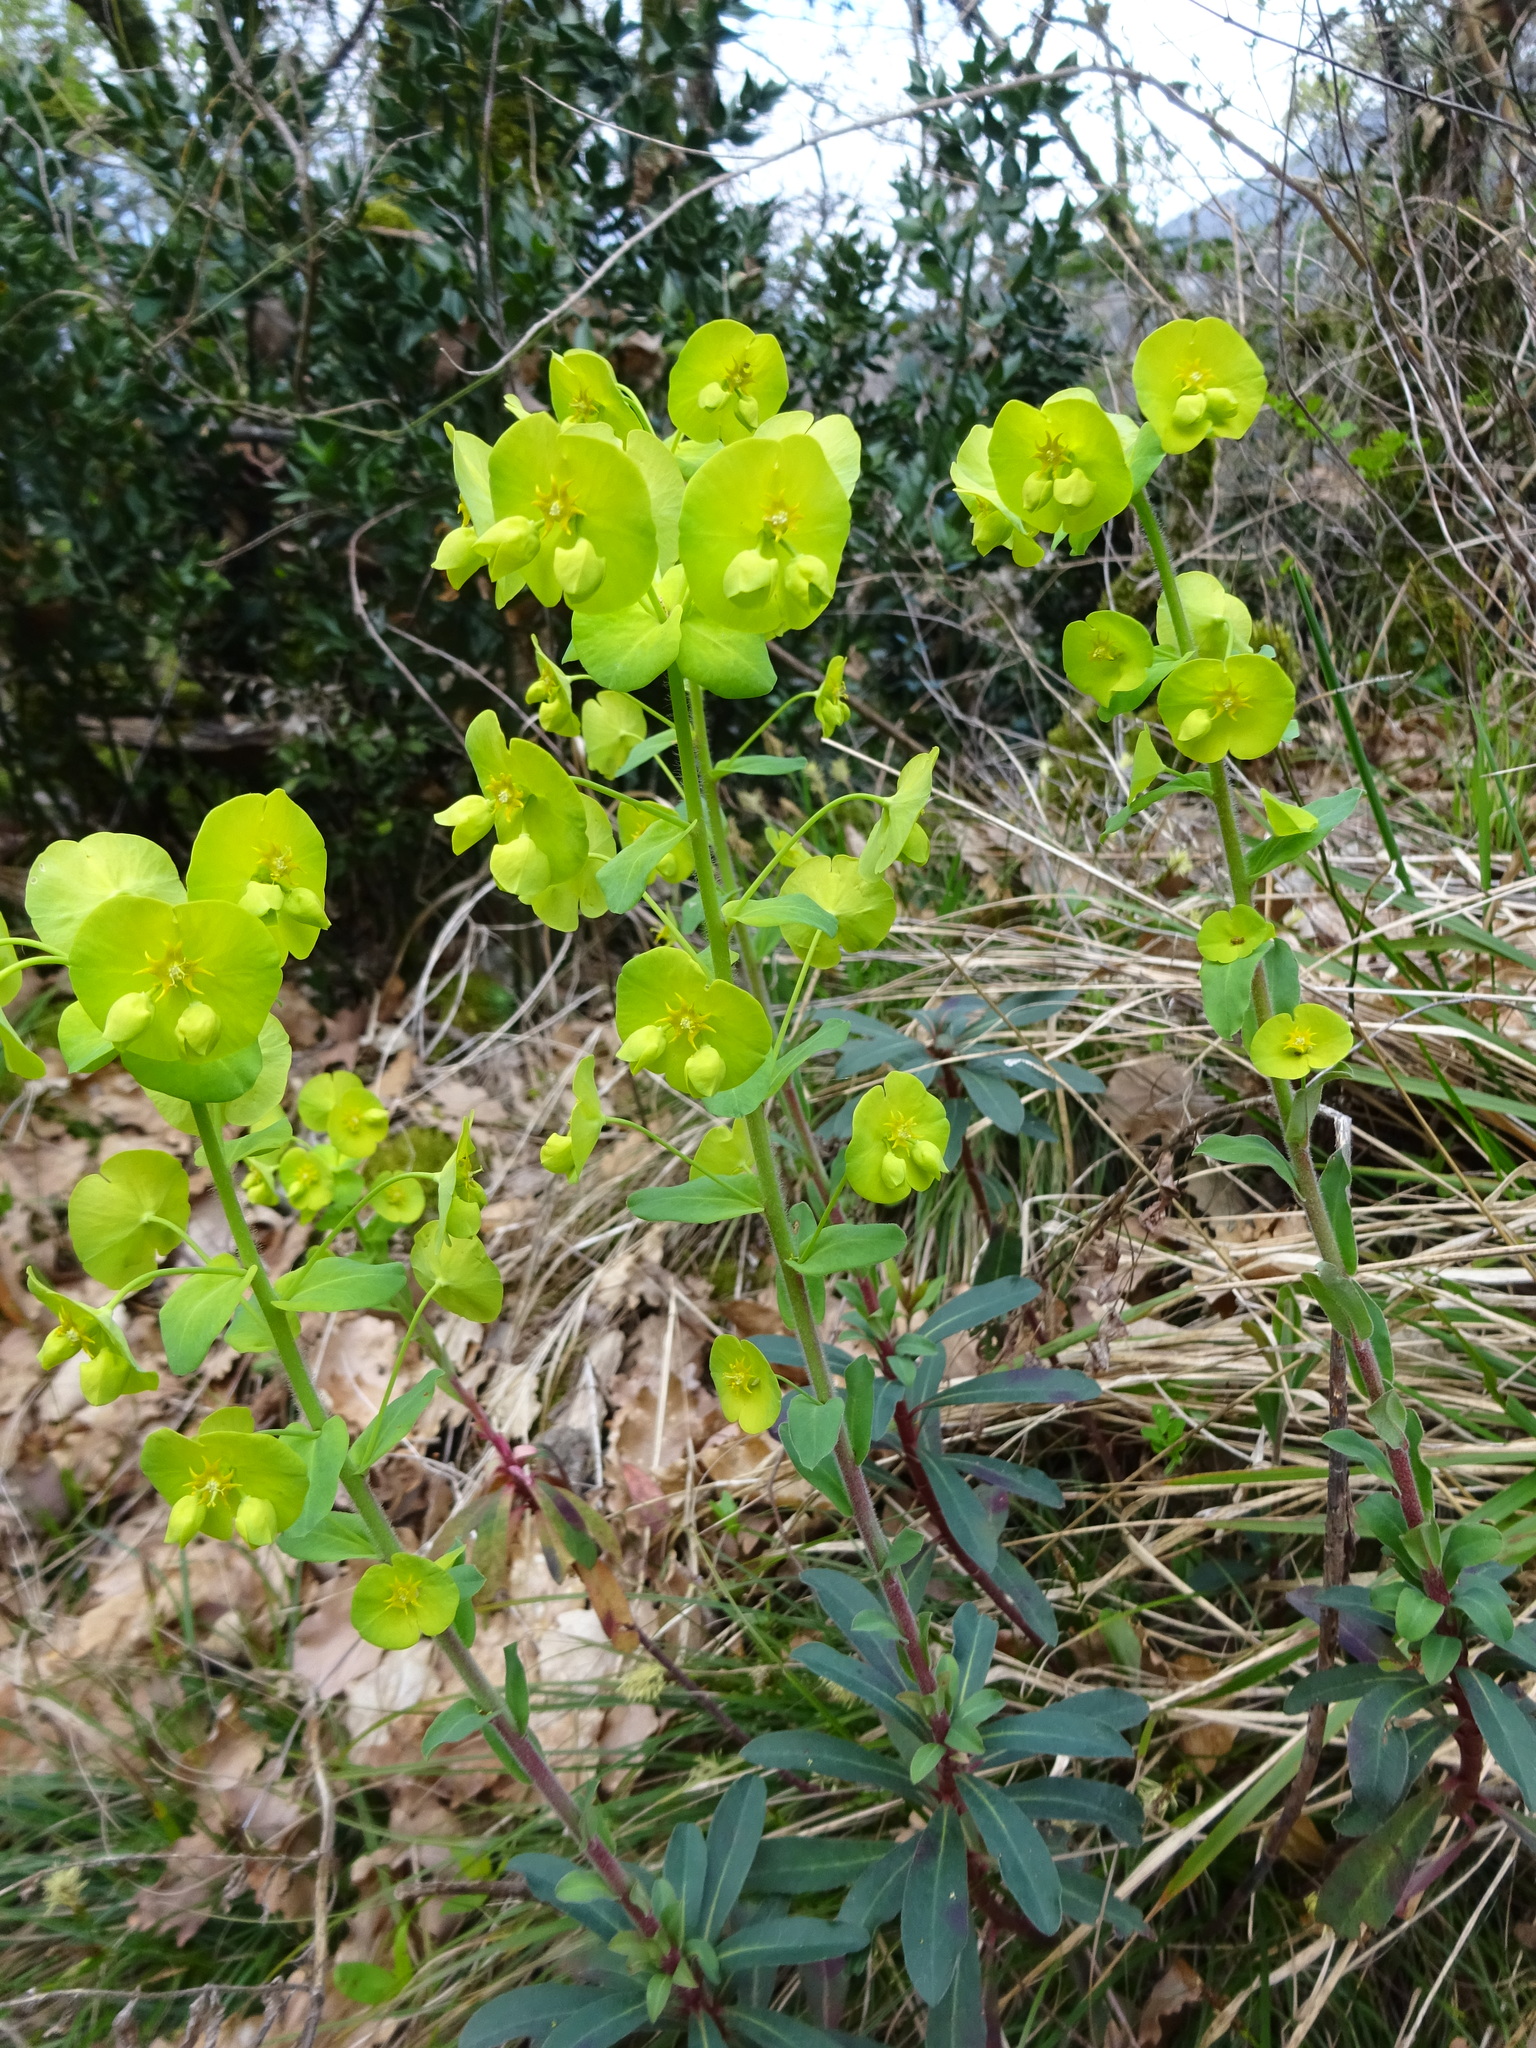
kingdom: Plantae
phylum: Tracheophyta
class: Magnoliopsida
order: Malpighiales
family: Euphorbiaceae
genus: Euphorbia
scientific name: Euphorbia amygdaloides
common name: Wood spurge
